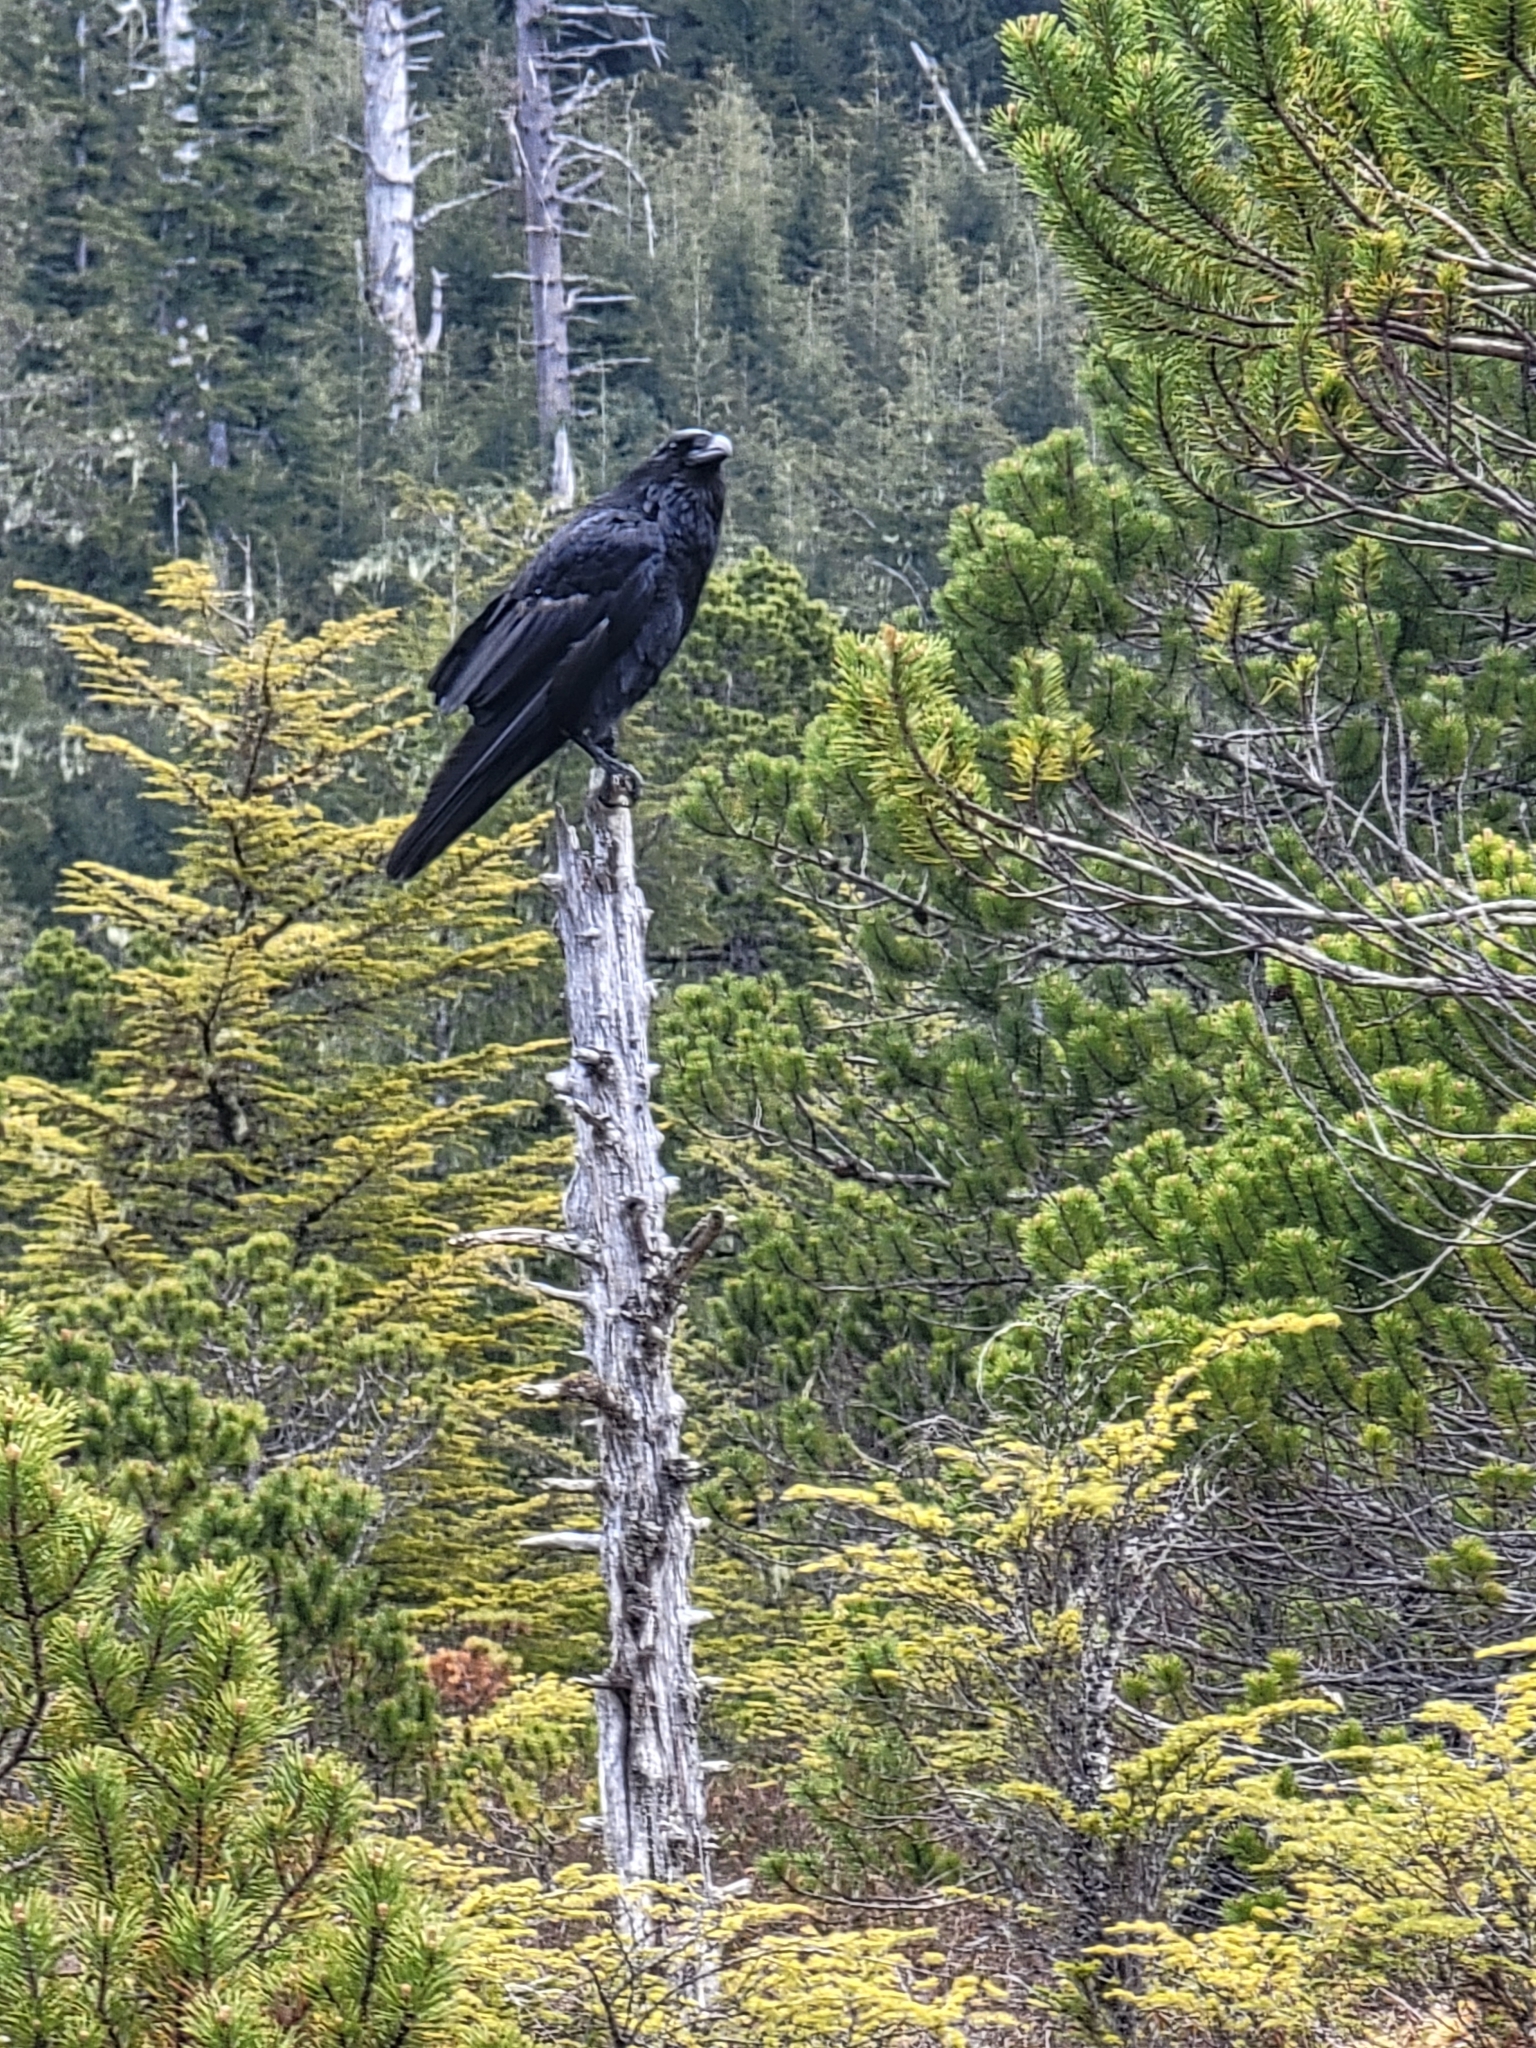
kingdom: Animalia
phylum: Chordata
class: Aves
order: Passeriformes
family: Corvidae
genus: Corvus
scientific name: Corvus corax
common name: Common raven
